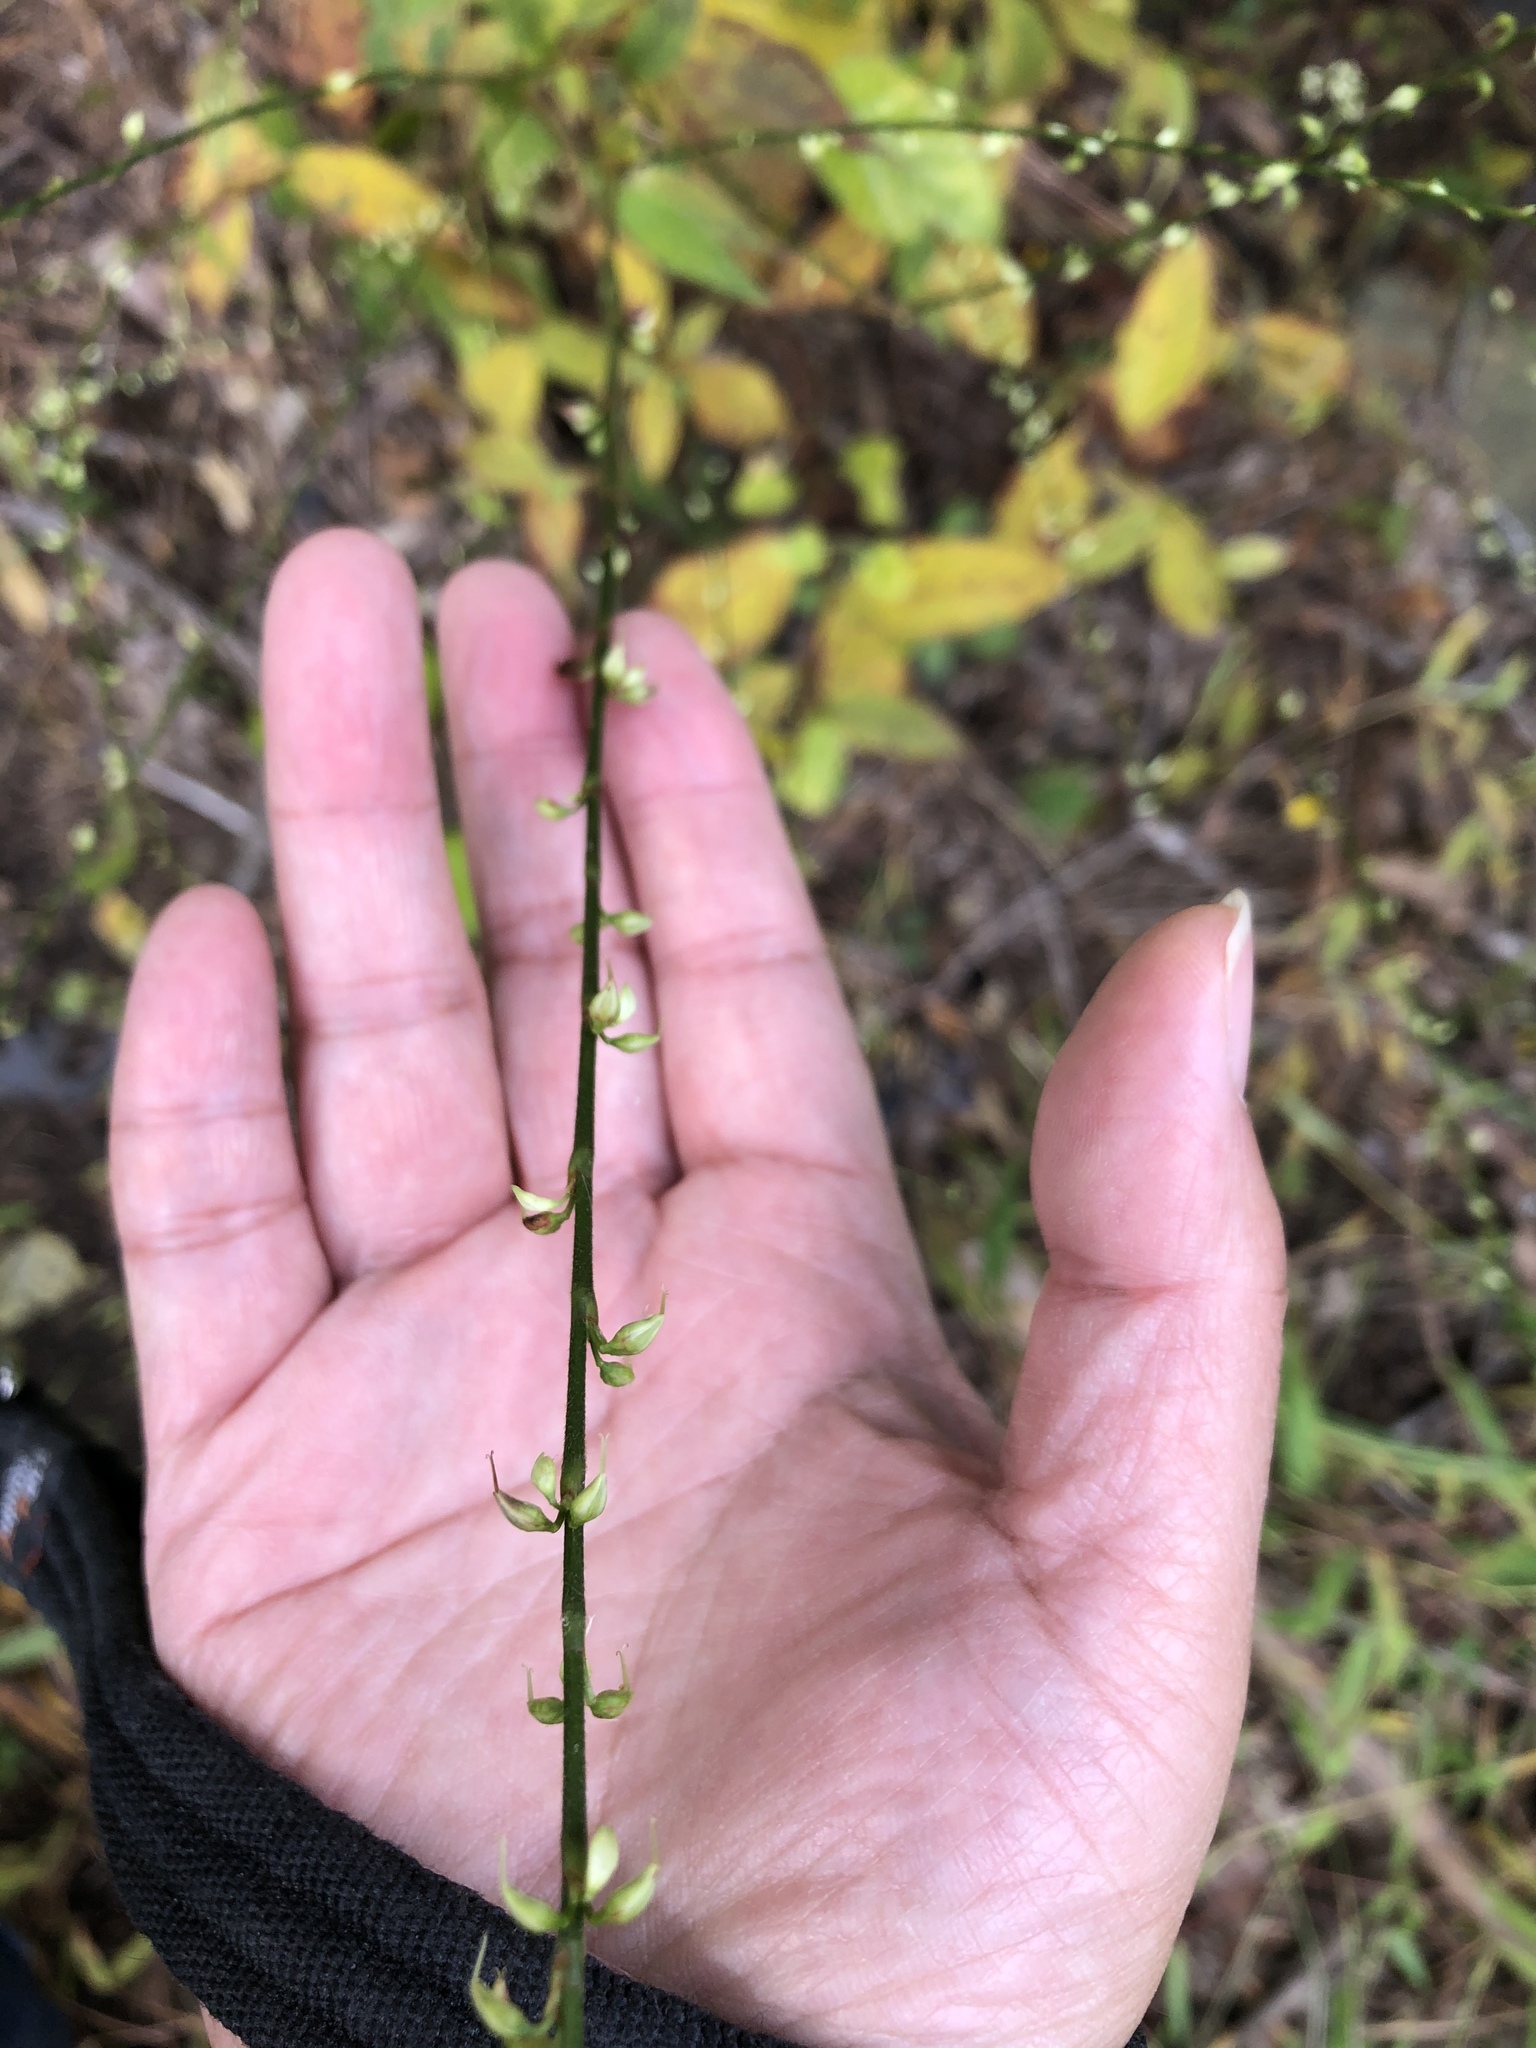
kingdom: Plantae
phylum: Tracheophyta
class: Magnoliopsida
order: Caryophyllales
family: Polygonaceae
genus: Persicaria
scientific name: Persicaria virginiana
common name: Jumpseed
